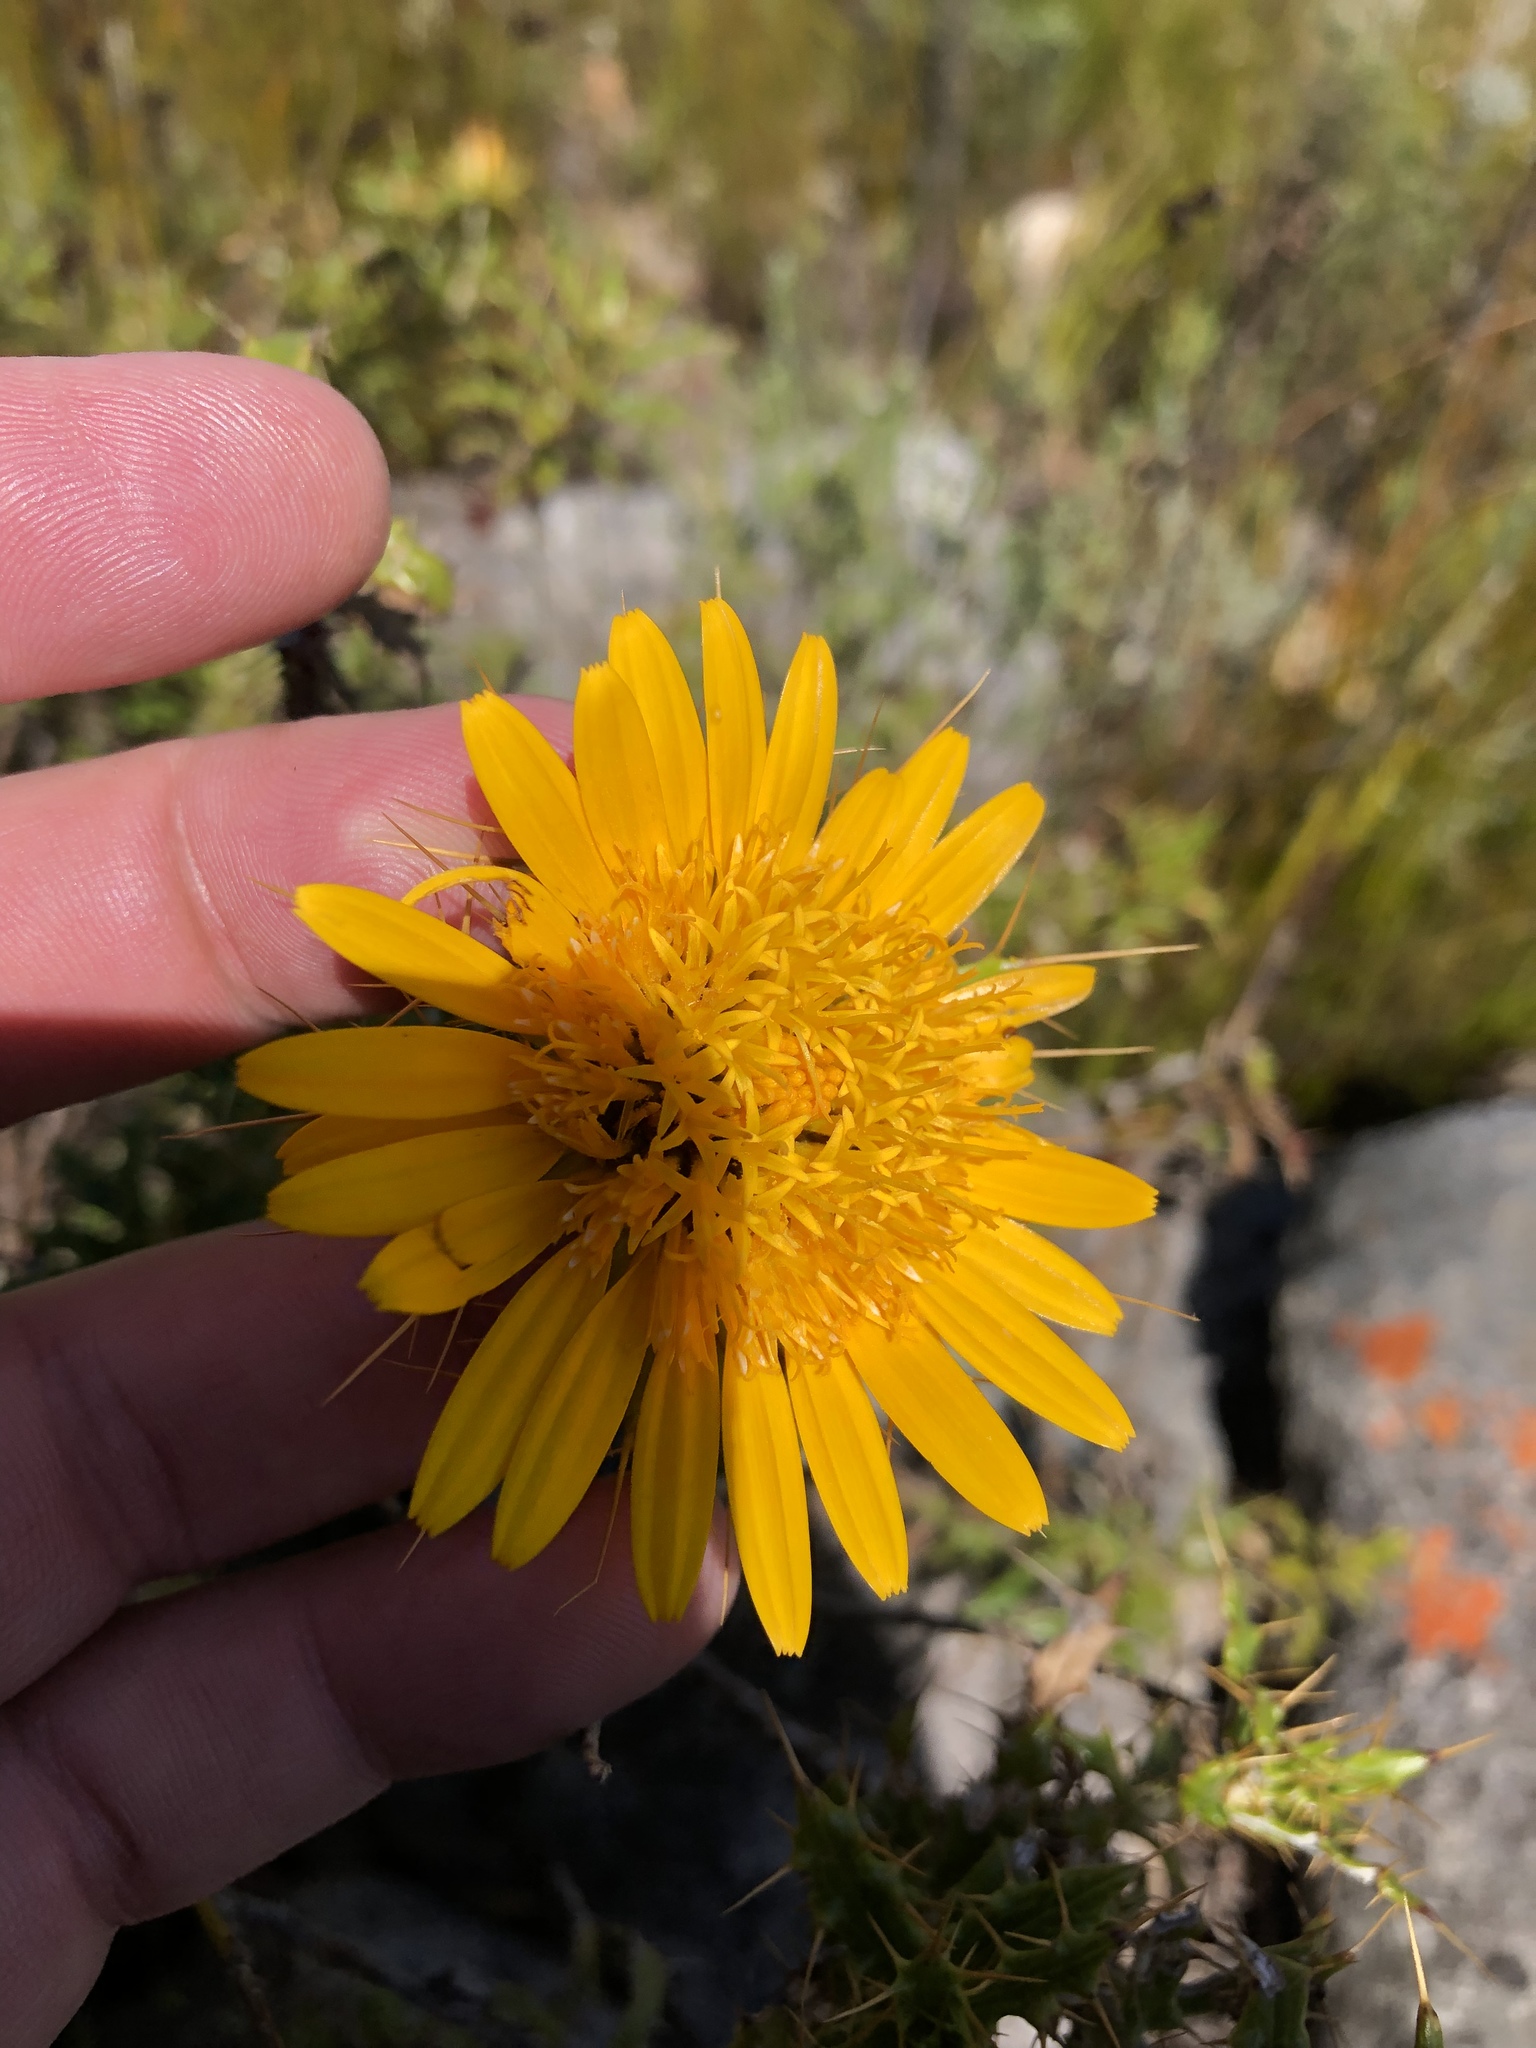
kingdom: Plantae
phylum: Tracheophyta
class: Magnoliopsida
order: Asterales
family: Asteraceae
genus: Berkheya
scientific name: Berkheya barbata
